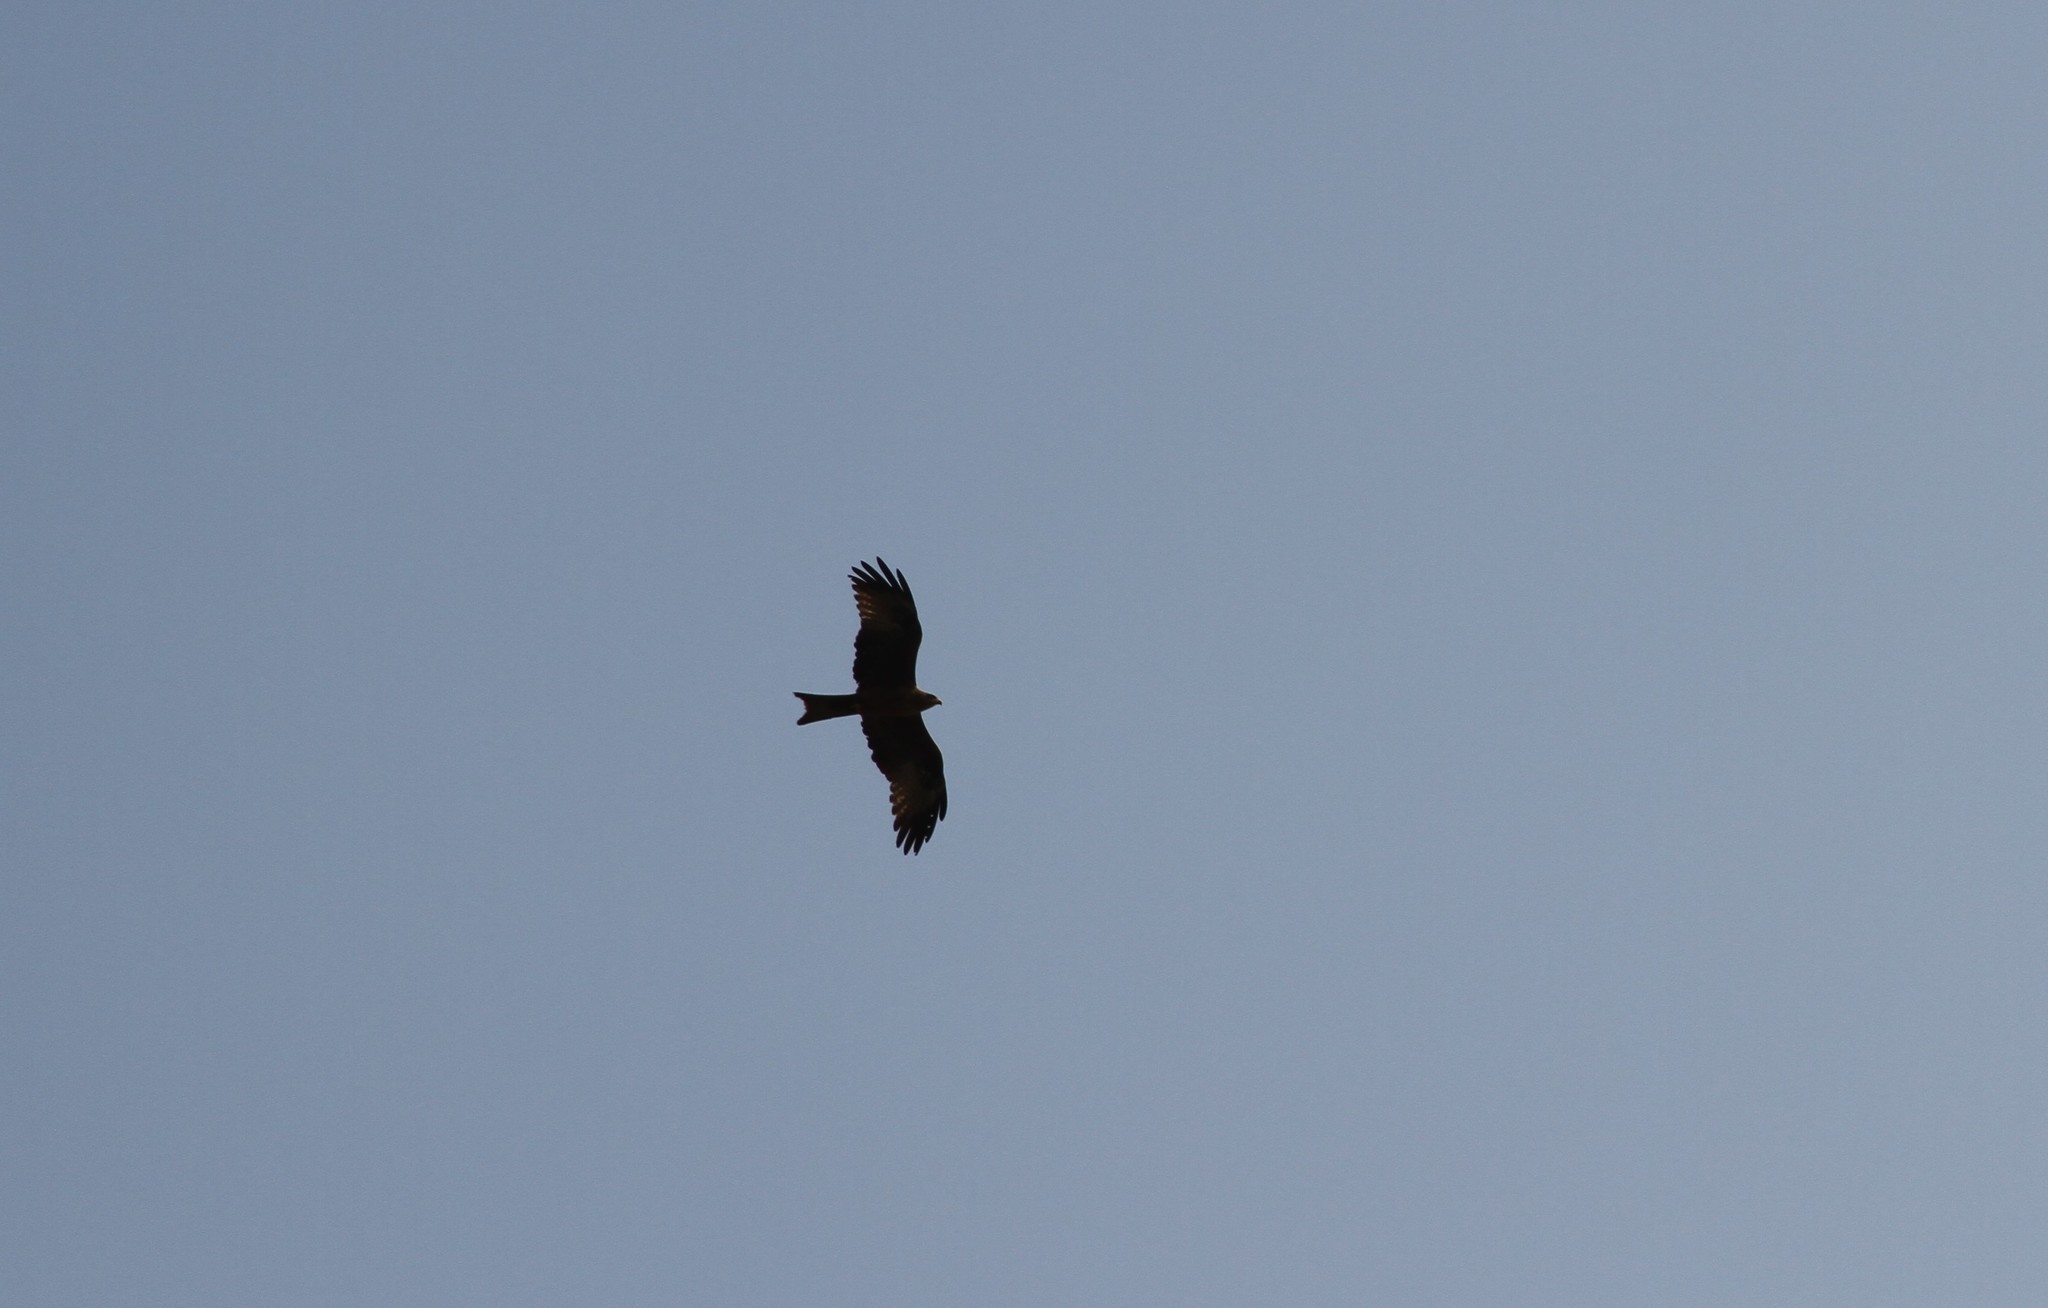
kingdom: Animalia
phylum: Chordata
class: Aves
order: Accipitriformes
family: Accipitridae
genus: Milvus
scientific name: Milvus migrans
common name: Black kite
